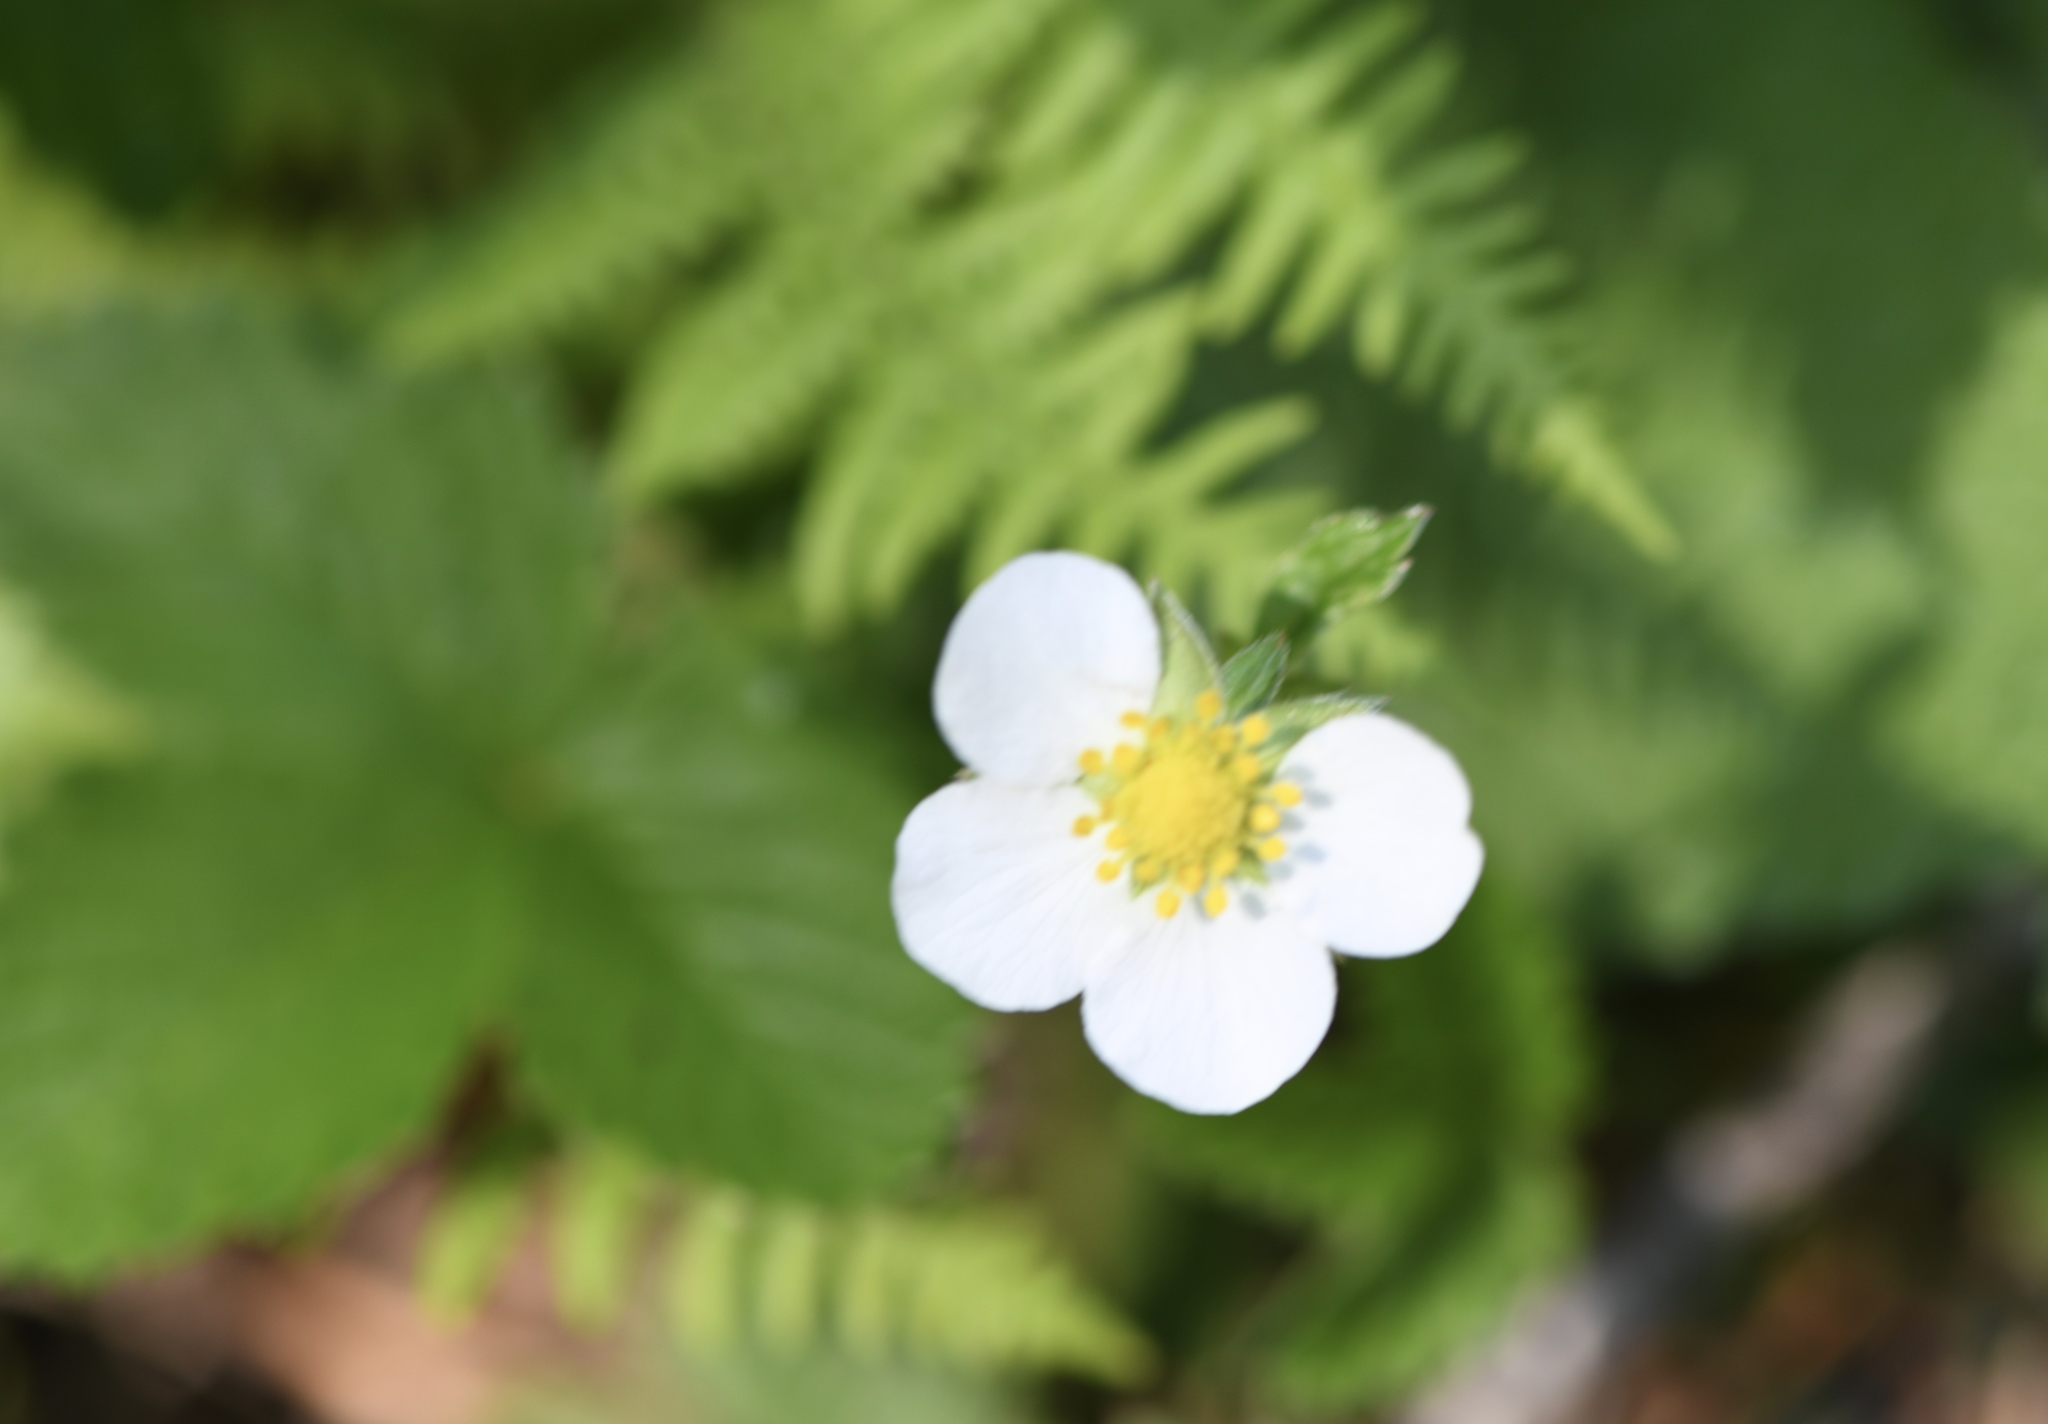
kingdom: Plantae
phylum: Tracheophyta
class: Magnoliopsida
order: Rosales
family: Rosaceae
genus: Fragaria
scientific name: Fragaria vesca
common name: Wild strawberry
